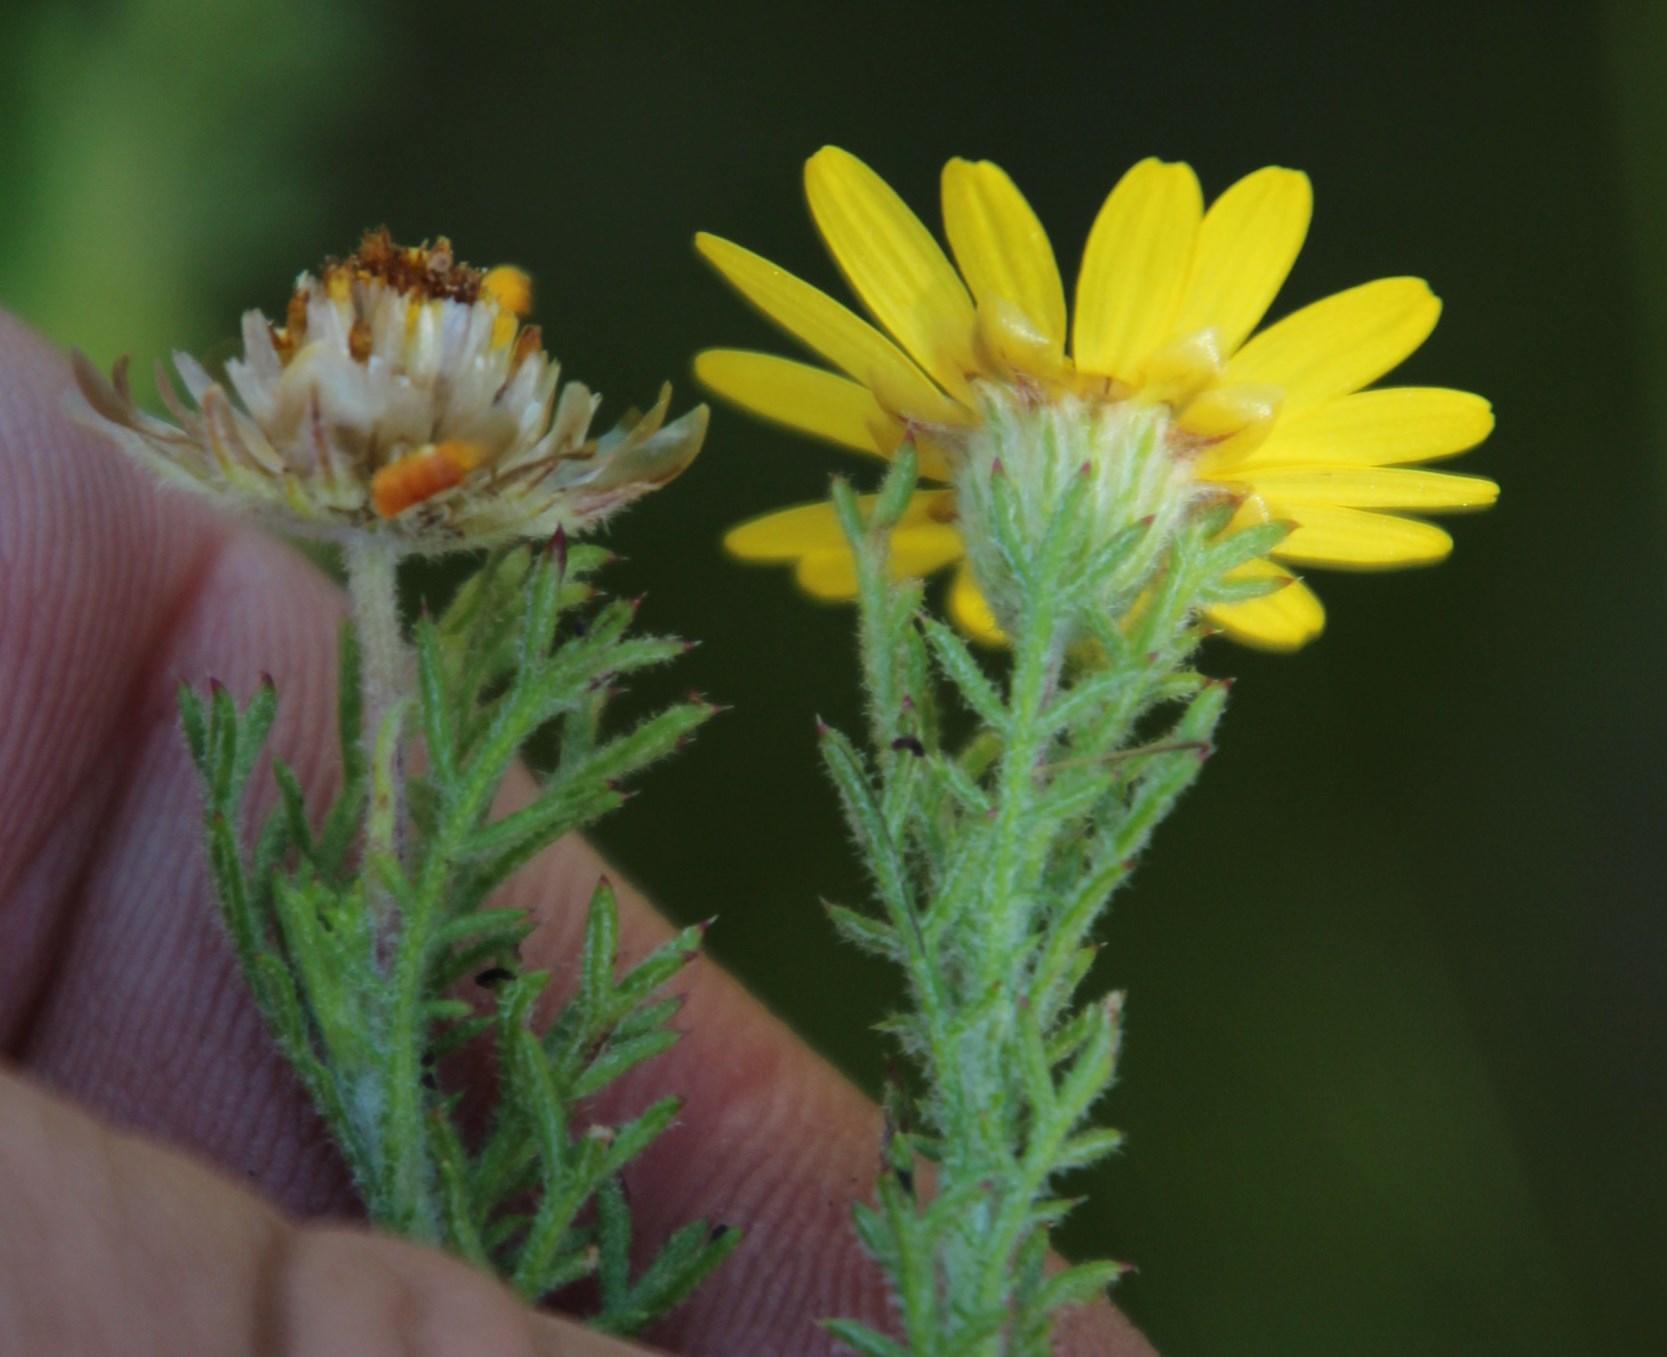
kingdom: Plantae
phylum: Tracheophyta
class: Magnoliopsida
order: Asterales
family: Asteraceae
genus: Ursinia
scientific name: Ursinia hispida
